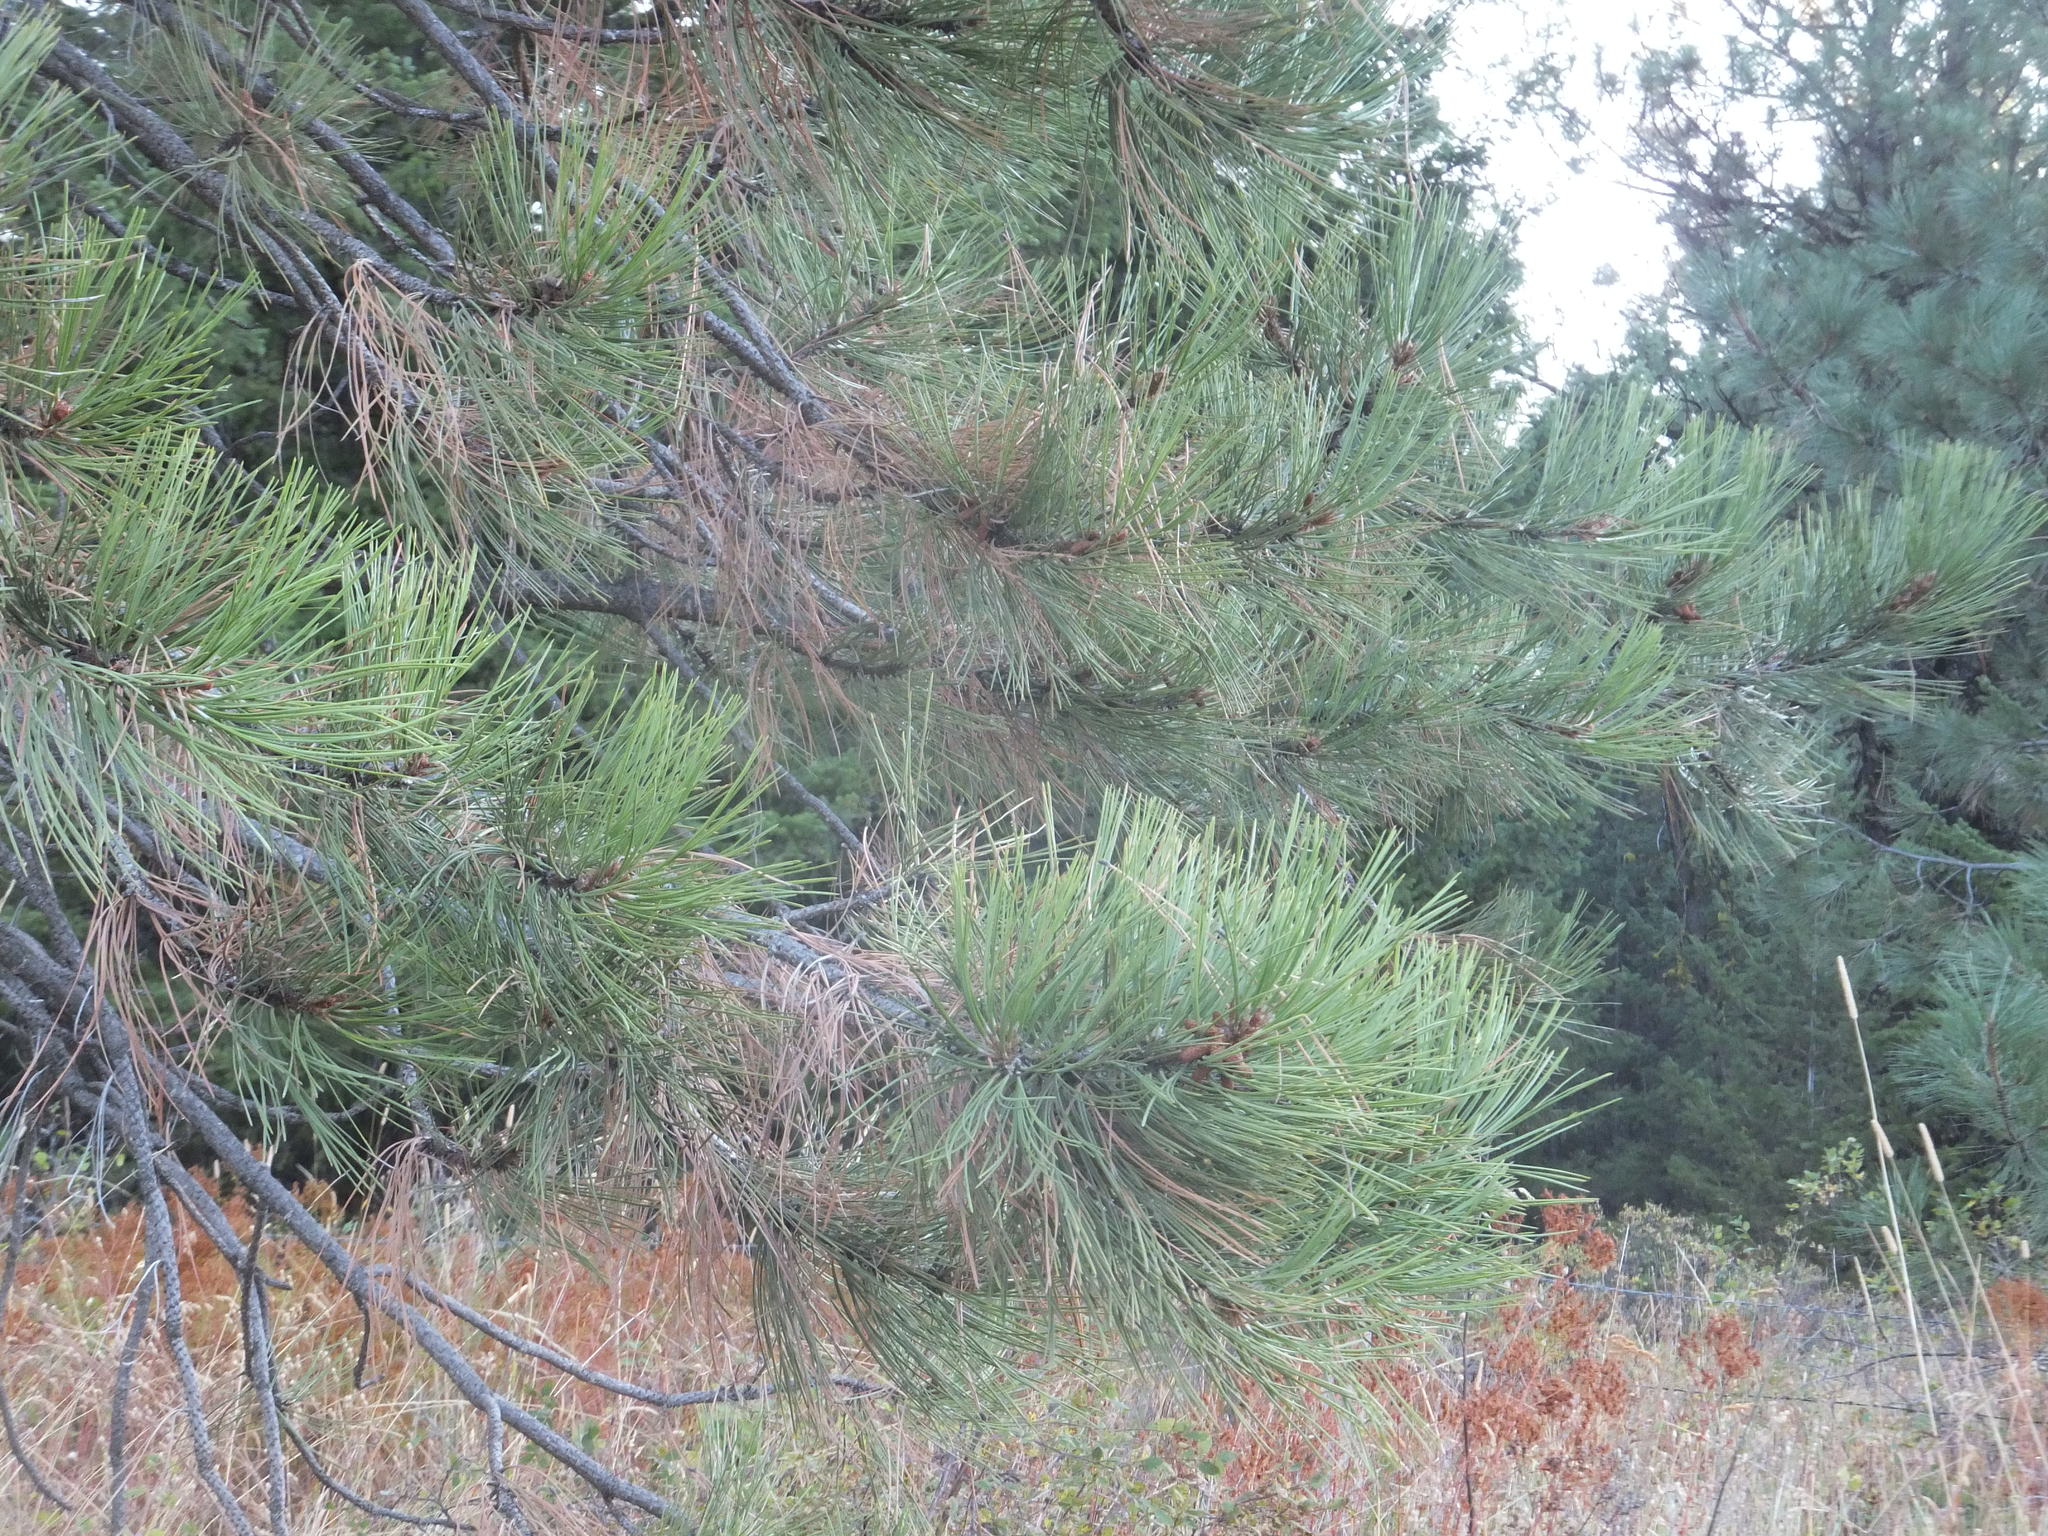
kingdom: Plantae
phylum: Tracheophyta
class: Pinopsida
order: Pinales
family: Pinaceae
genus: Pinus
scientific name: Pinus ponderosa
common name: Western yellow-pine
